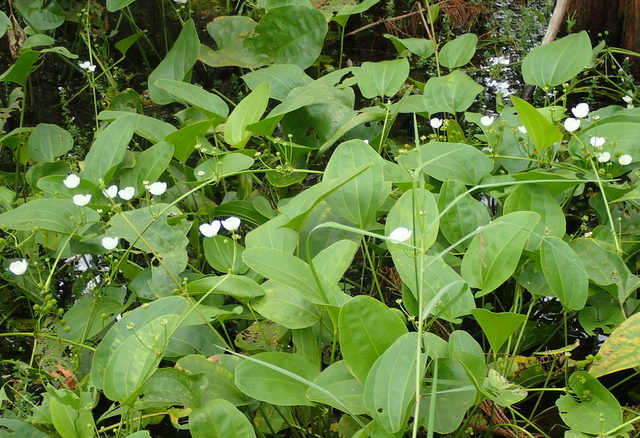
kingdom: Plantae
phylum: Tracheophyta
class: Liliopsida
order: Alismatales
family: Alismataceae
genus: Aquarius
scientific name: Aquarius cordifolius
